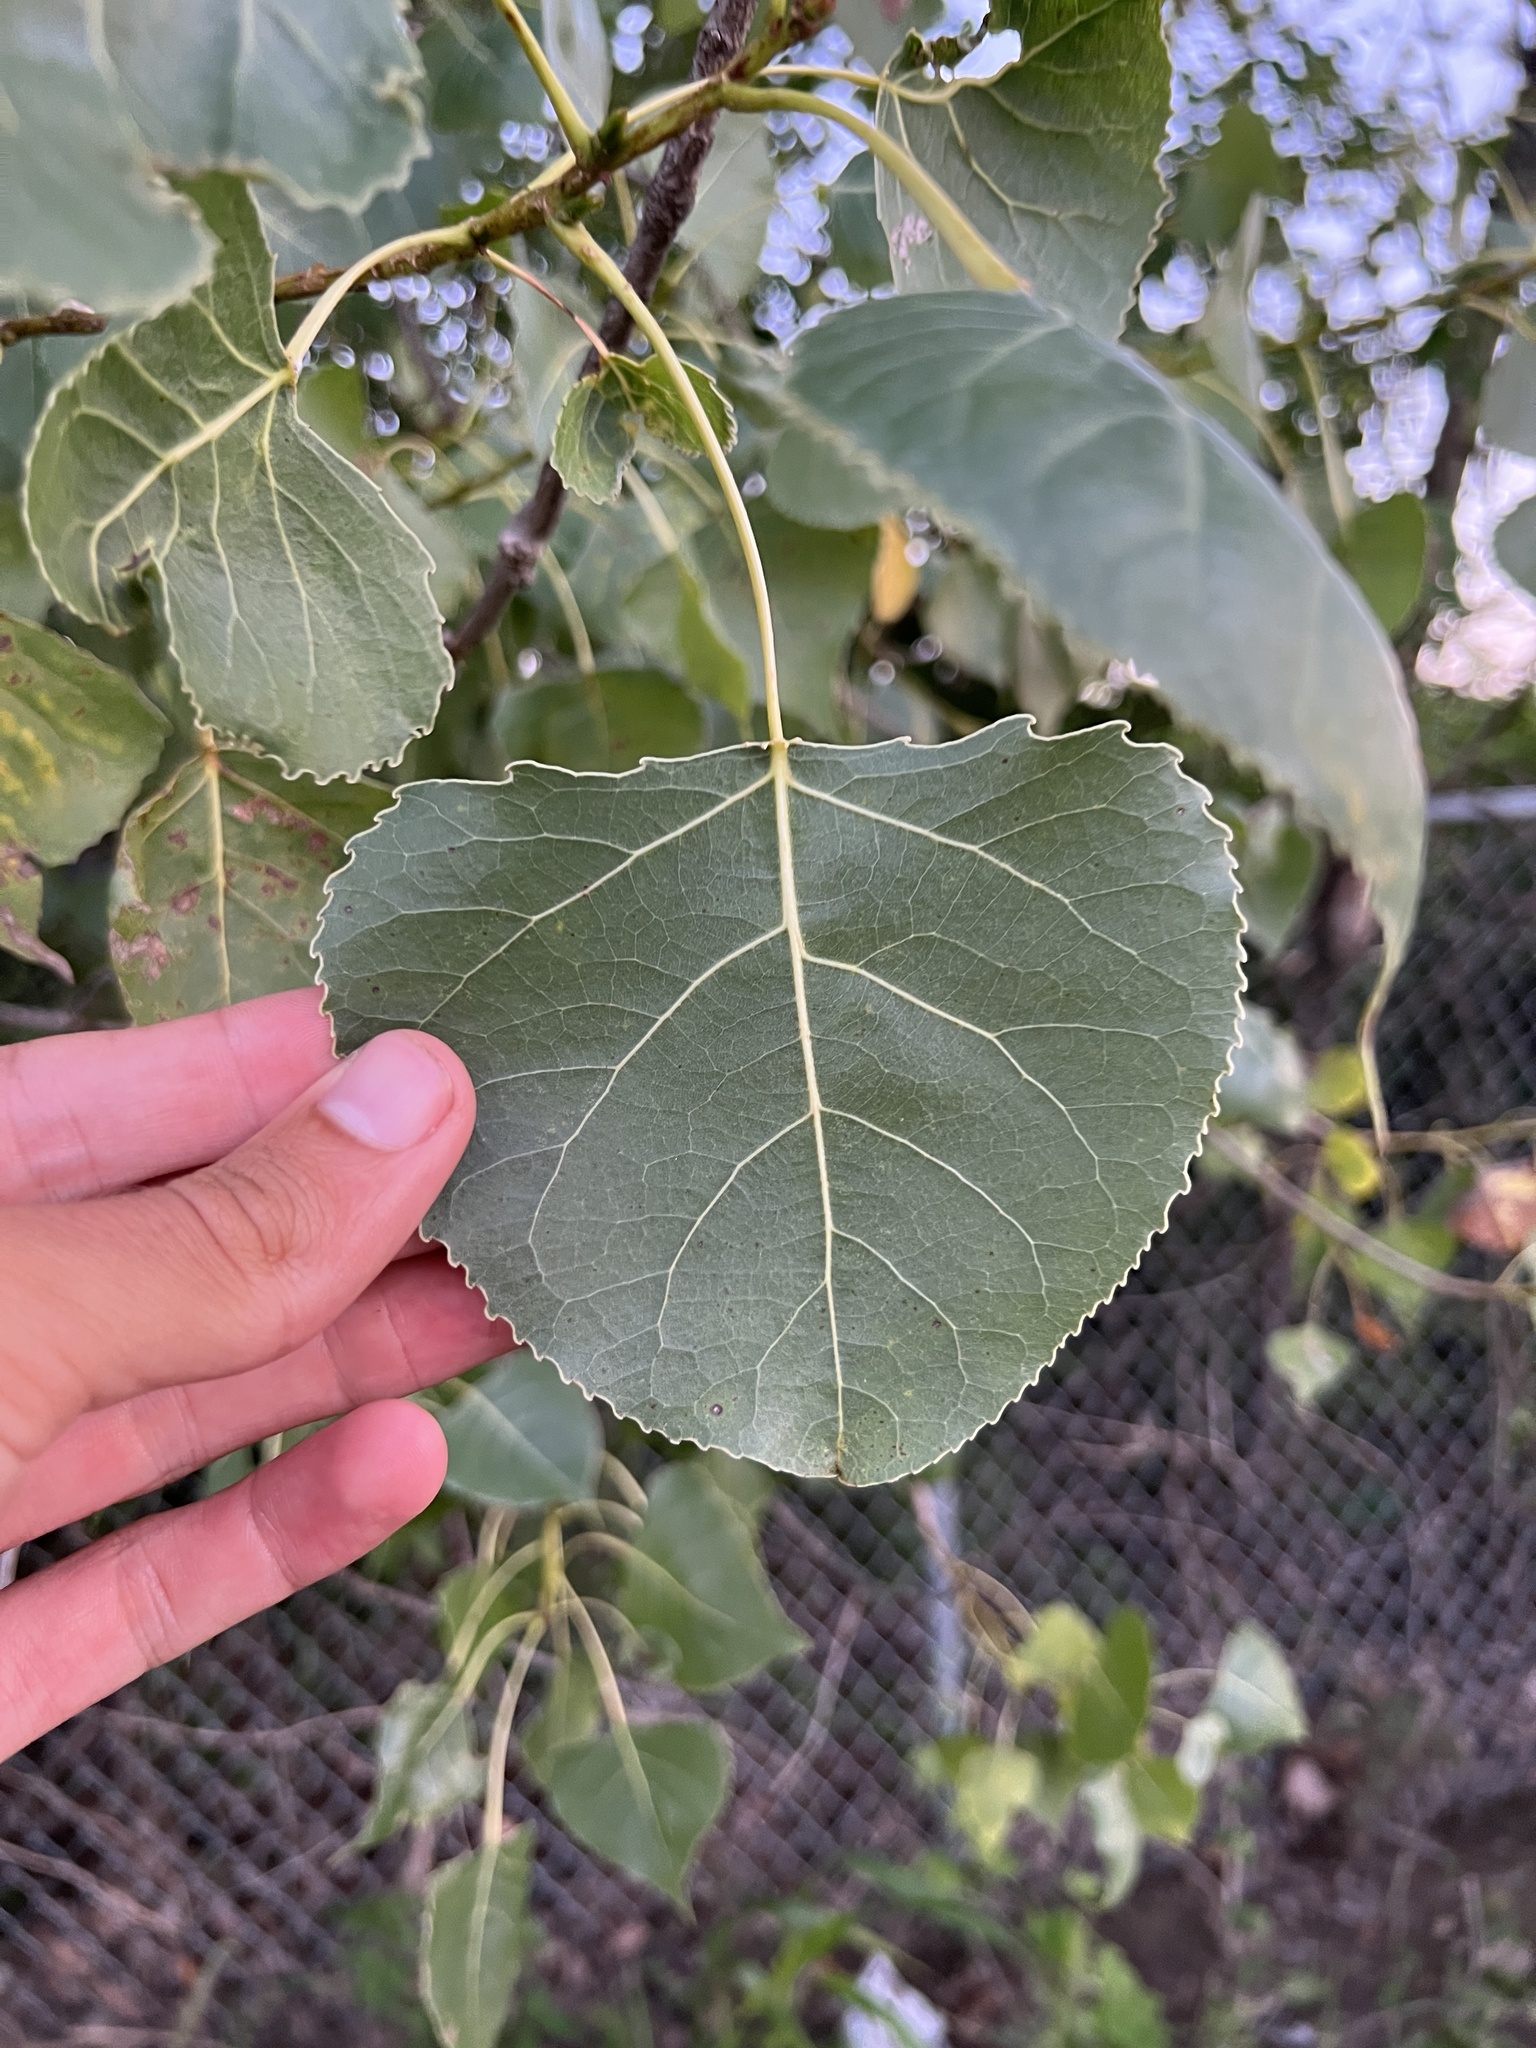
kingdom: Plantae
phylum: Tracheophyta
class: Magnoliopsida
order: Malpighiales
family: Salicaceae
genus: Populus
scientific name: Populus deltoides
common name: Eastern cottonwood
